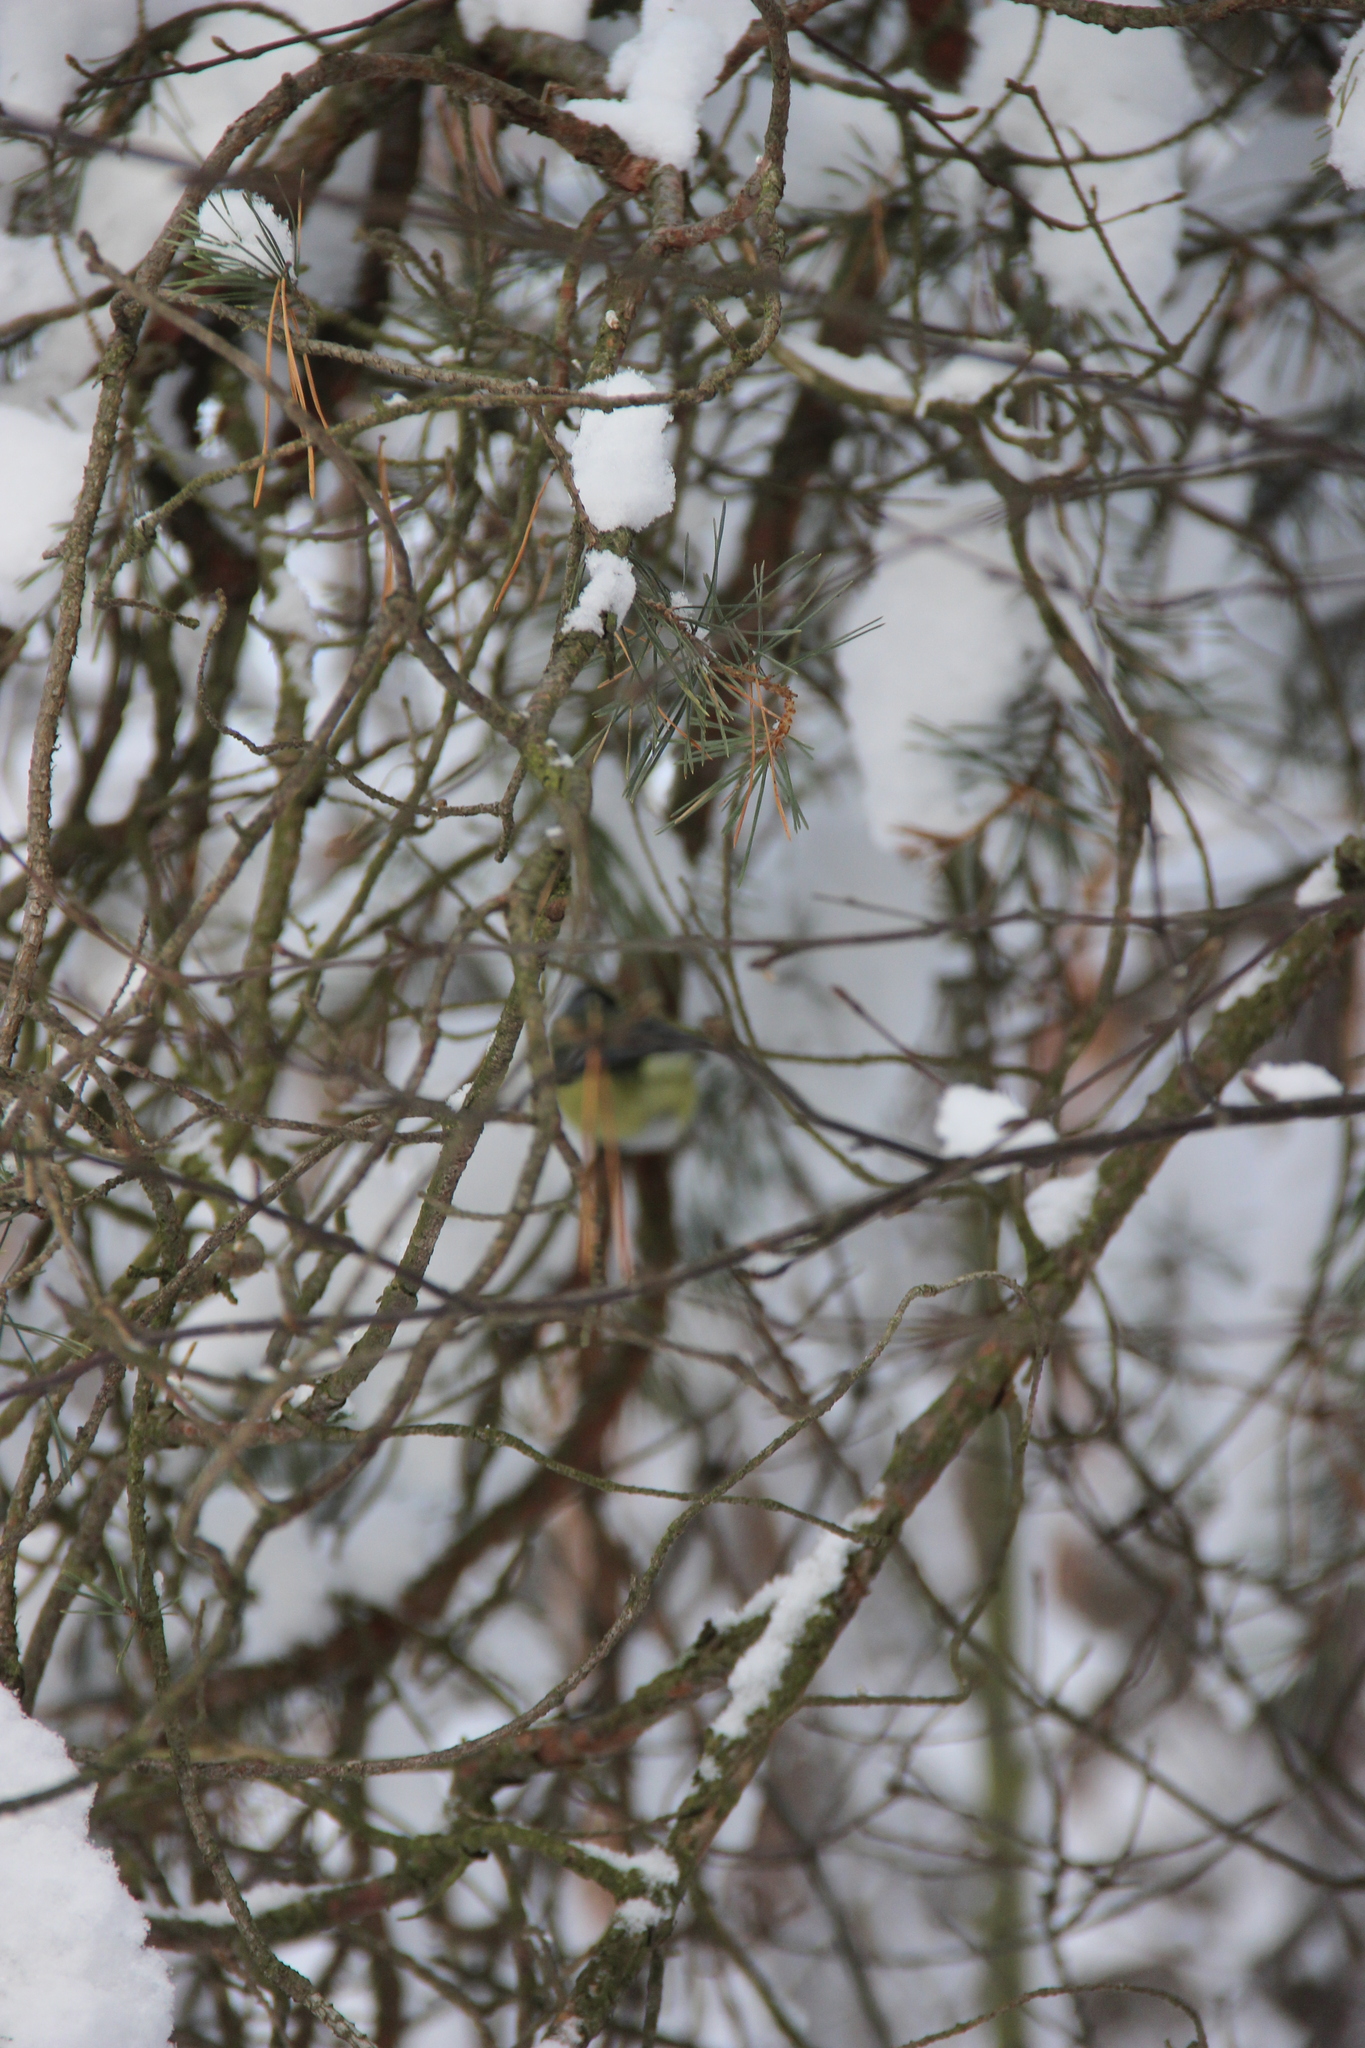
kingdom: Animalia
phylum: Chordata
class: Aves
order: Passeriformes
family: Paridae
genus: Cyanistes
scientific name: Cyanistes caeruleus
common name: Eurasian blue tit
